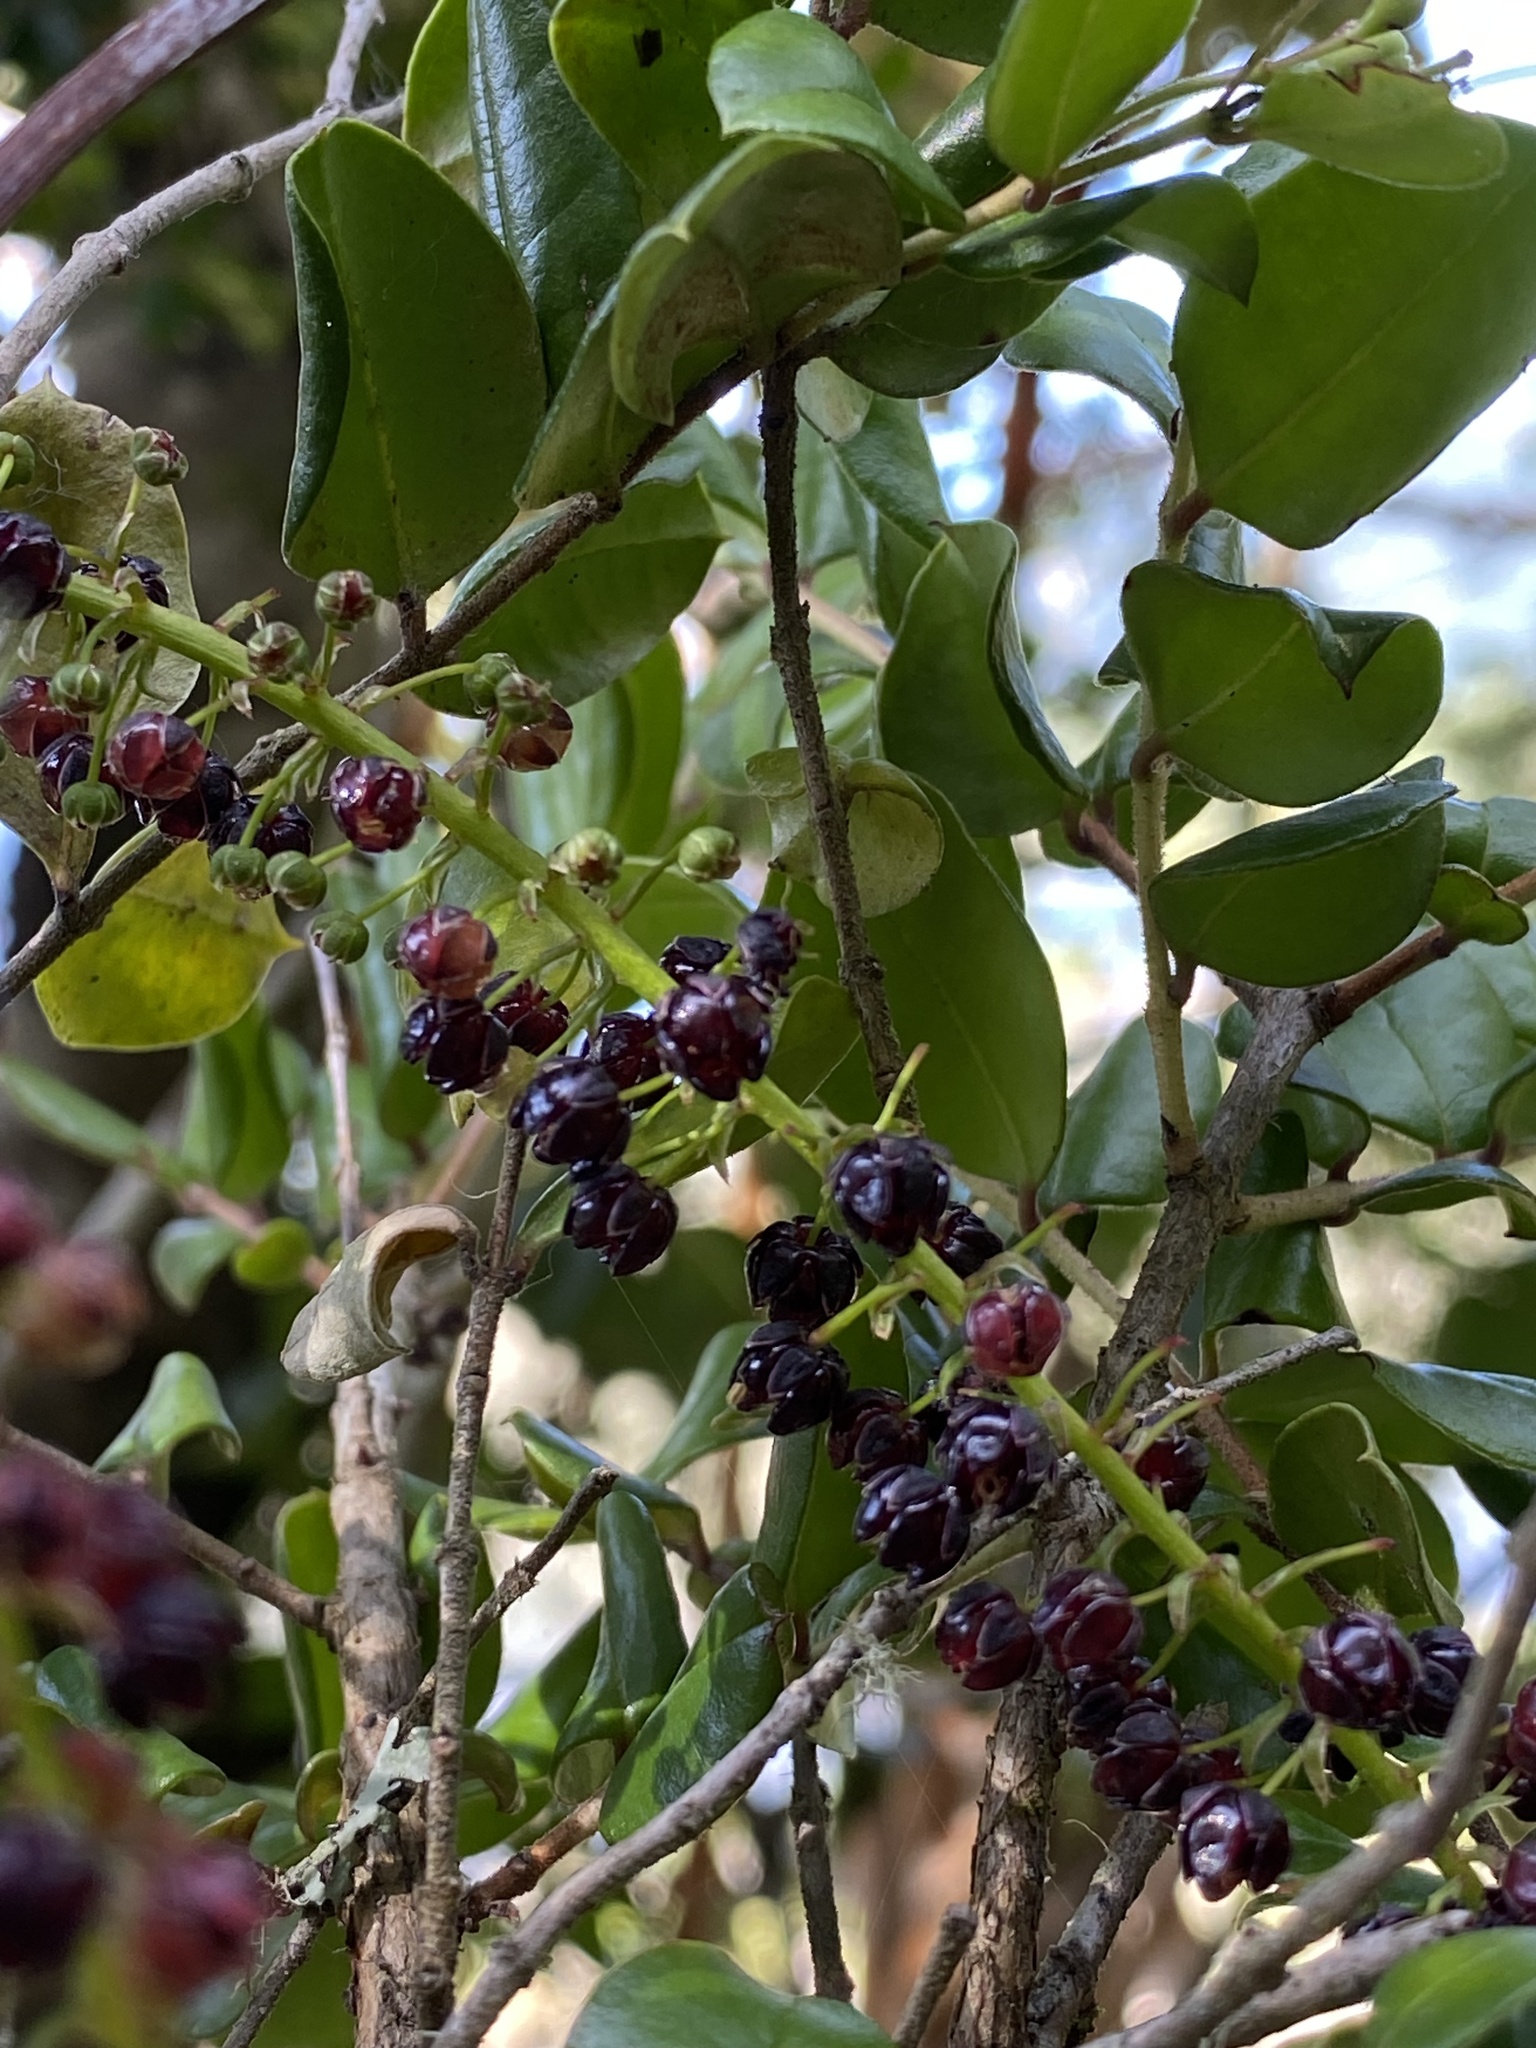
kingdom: Plantae
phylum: Tracheophyta
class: Magnoliopsida
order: Cucurbitales
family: Coriariaceae
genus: Coriaria
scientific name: Coriaria ruscifolia
